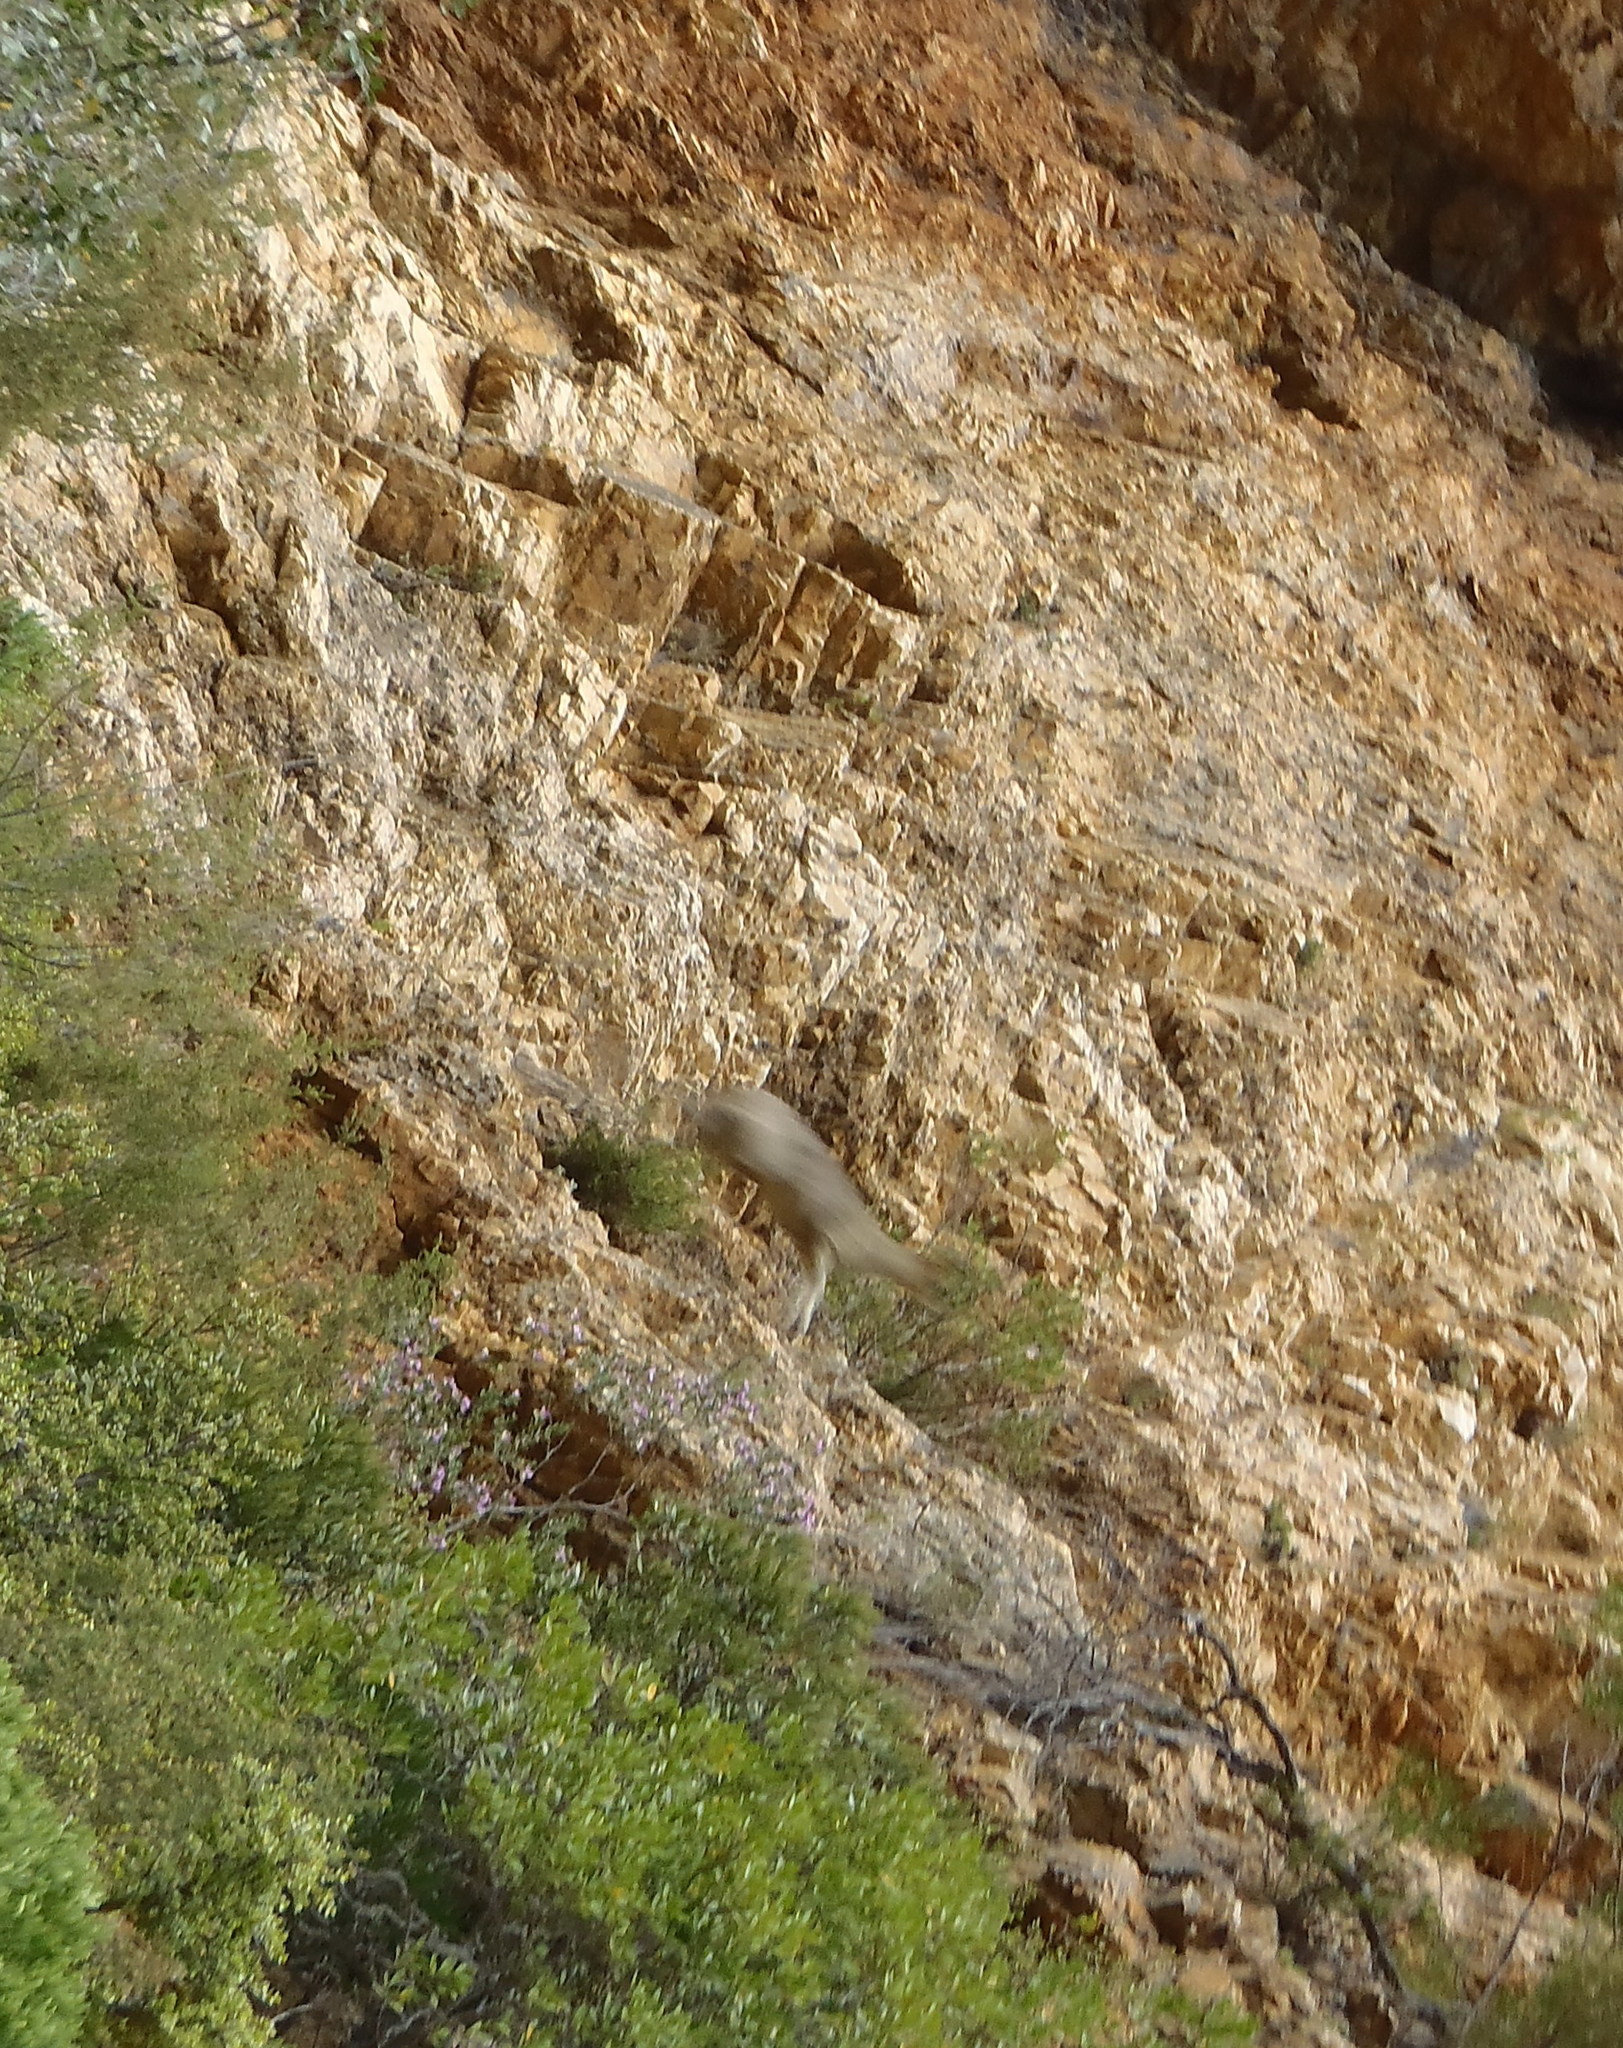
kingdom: Animalia
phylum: Chordata
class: Mammalia
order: Artiodactyla
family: Bovidae
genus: Oreotragus
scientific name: Oreotragus oreotragus
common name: Klipspringer
